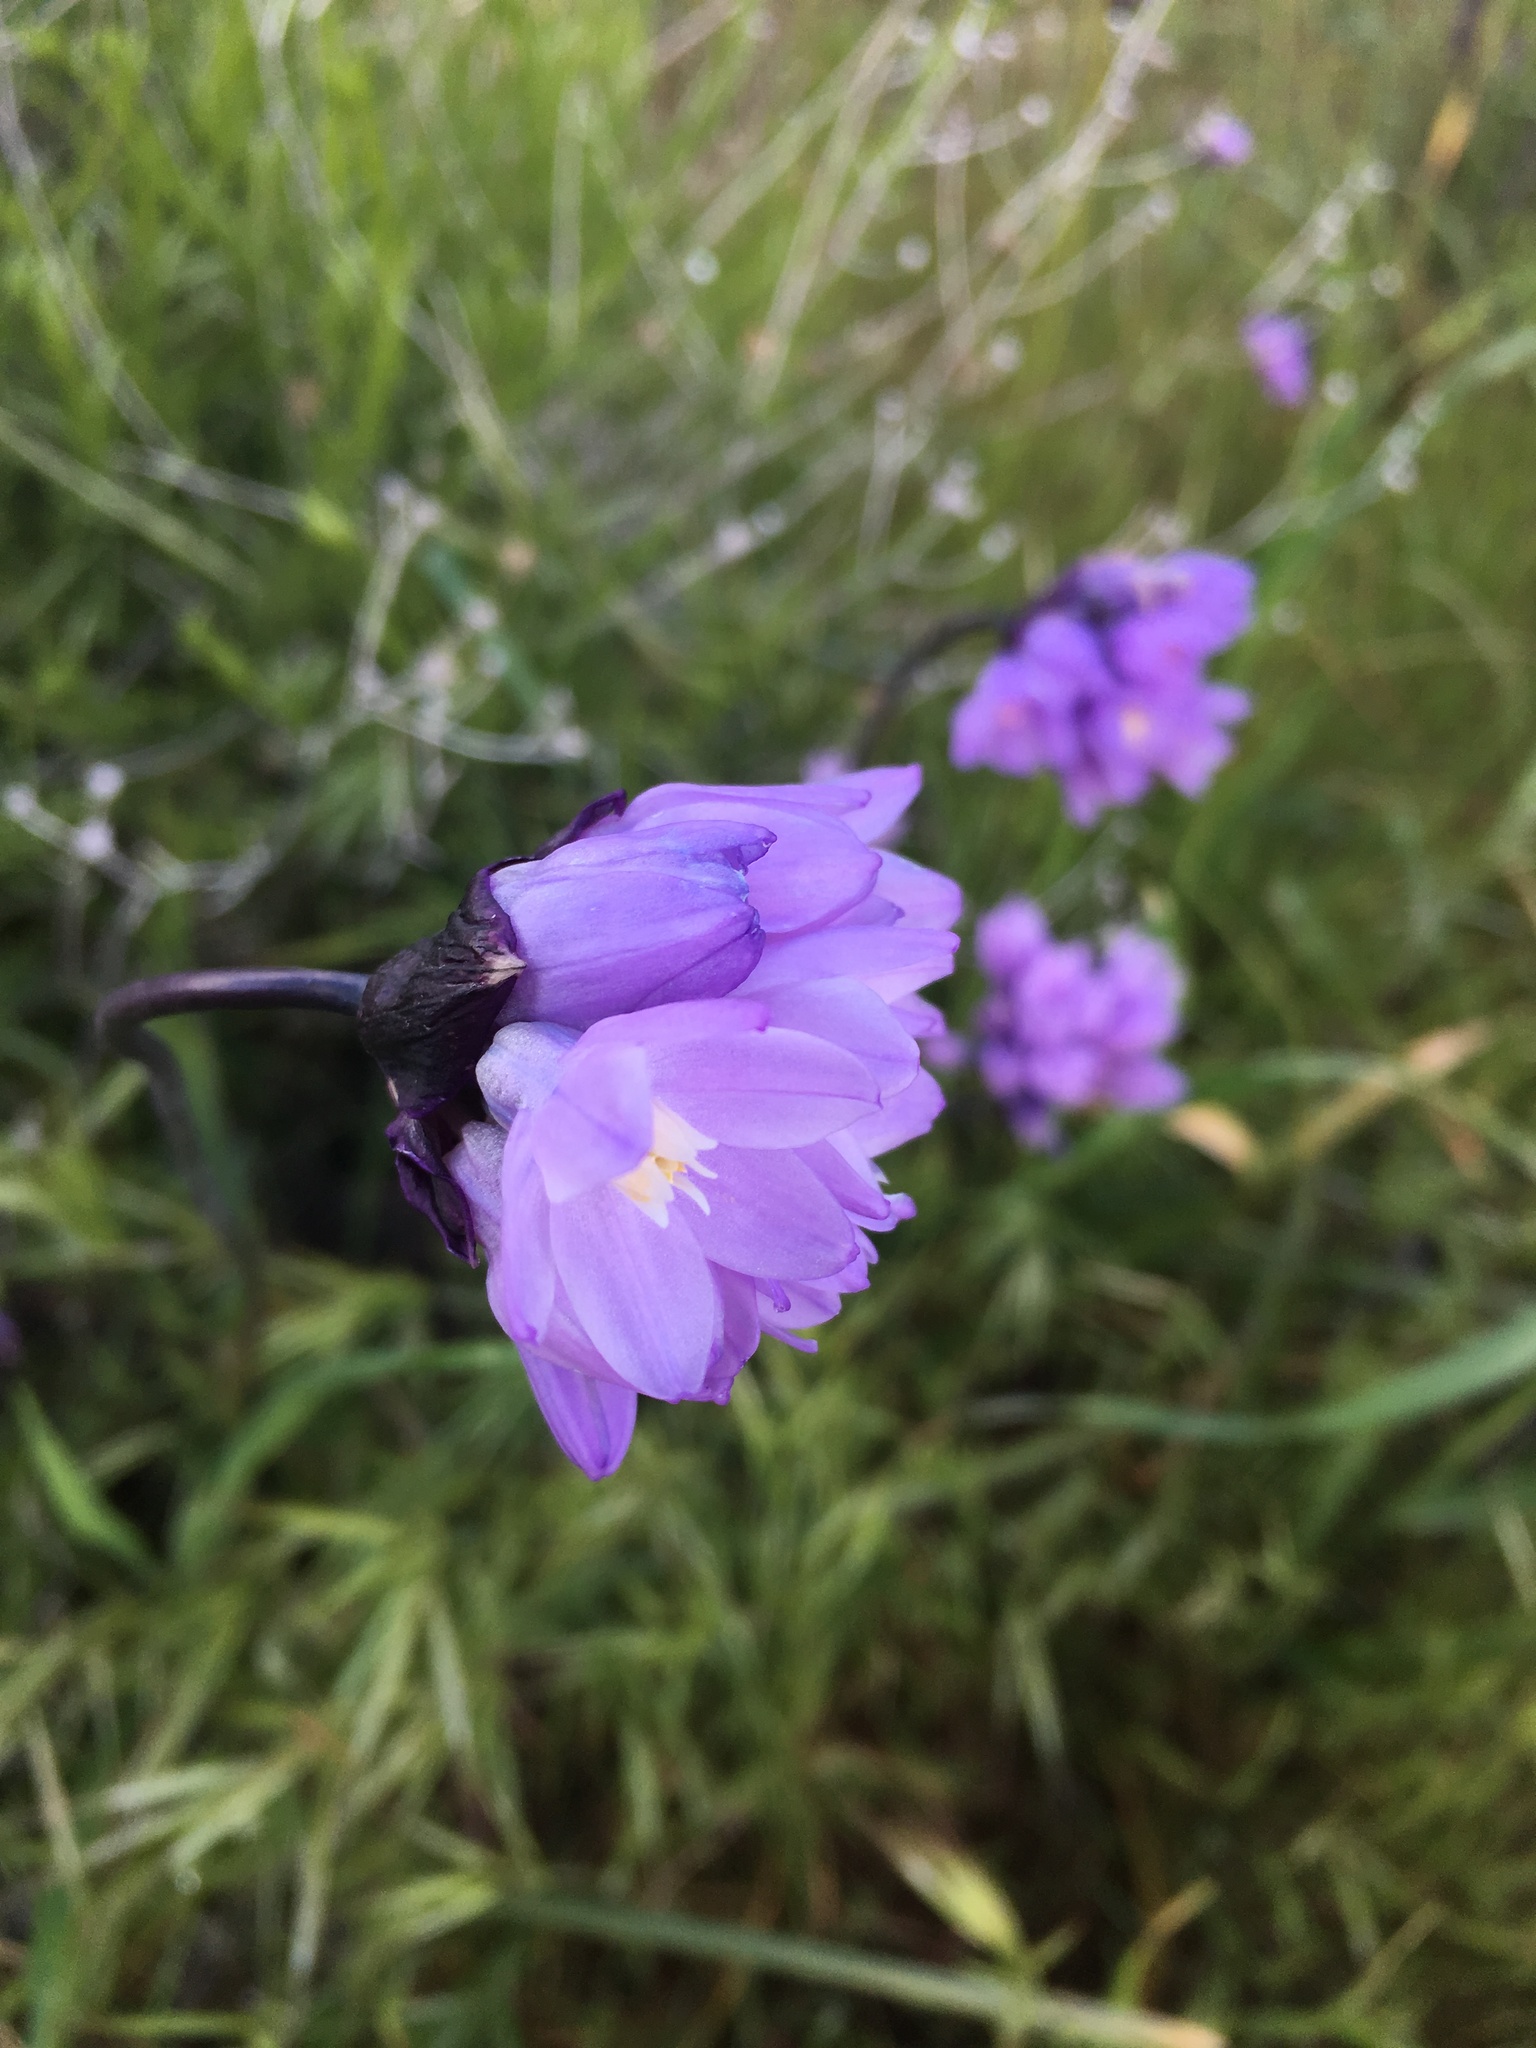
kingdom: Plantae
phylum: Tracheophyta
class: Liliopsida
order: Asparagales
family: Asparagaceae
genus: Dipterostemon
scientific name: Dipterostemon capitatus
